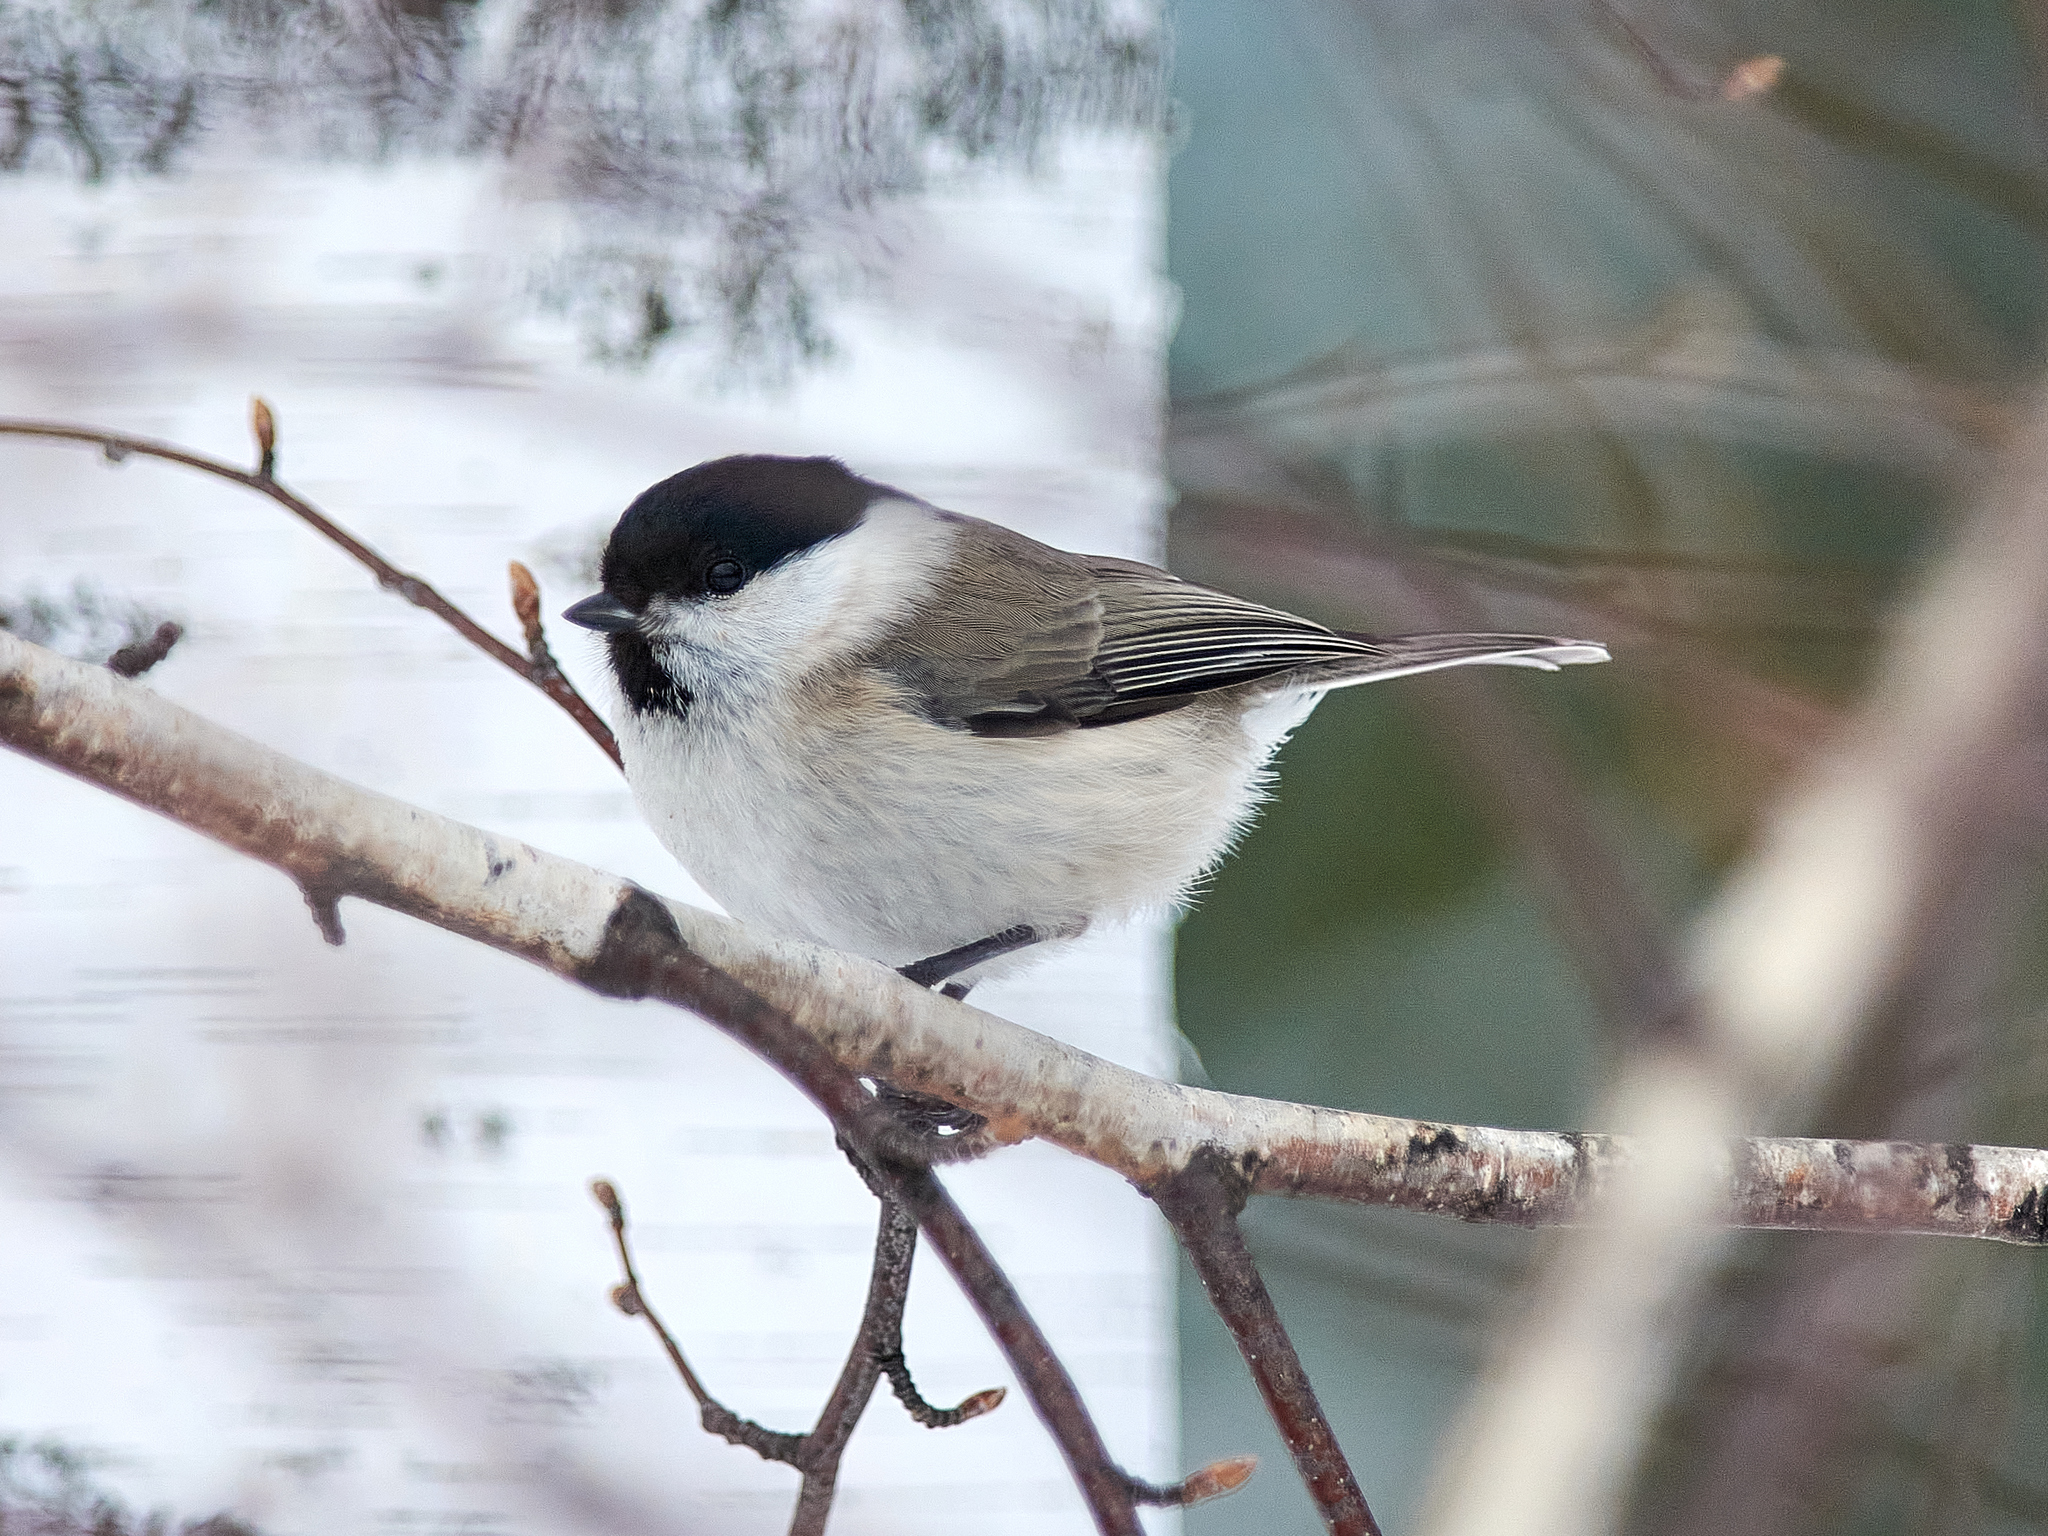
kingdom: Animalia
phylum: Chordata
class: Aves
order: Passeriformes
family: Paridae
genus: Poecile
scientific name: Poecile palustris
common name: Marsh tit
